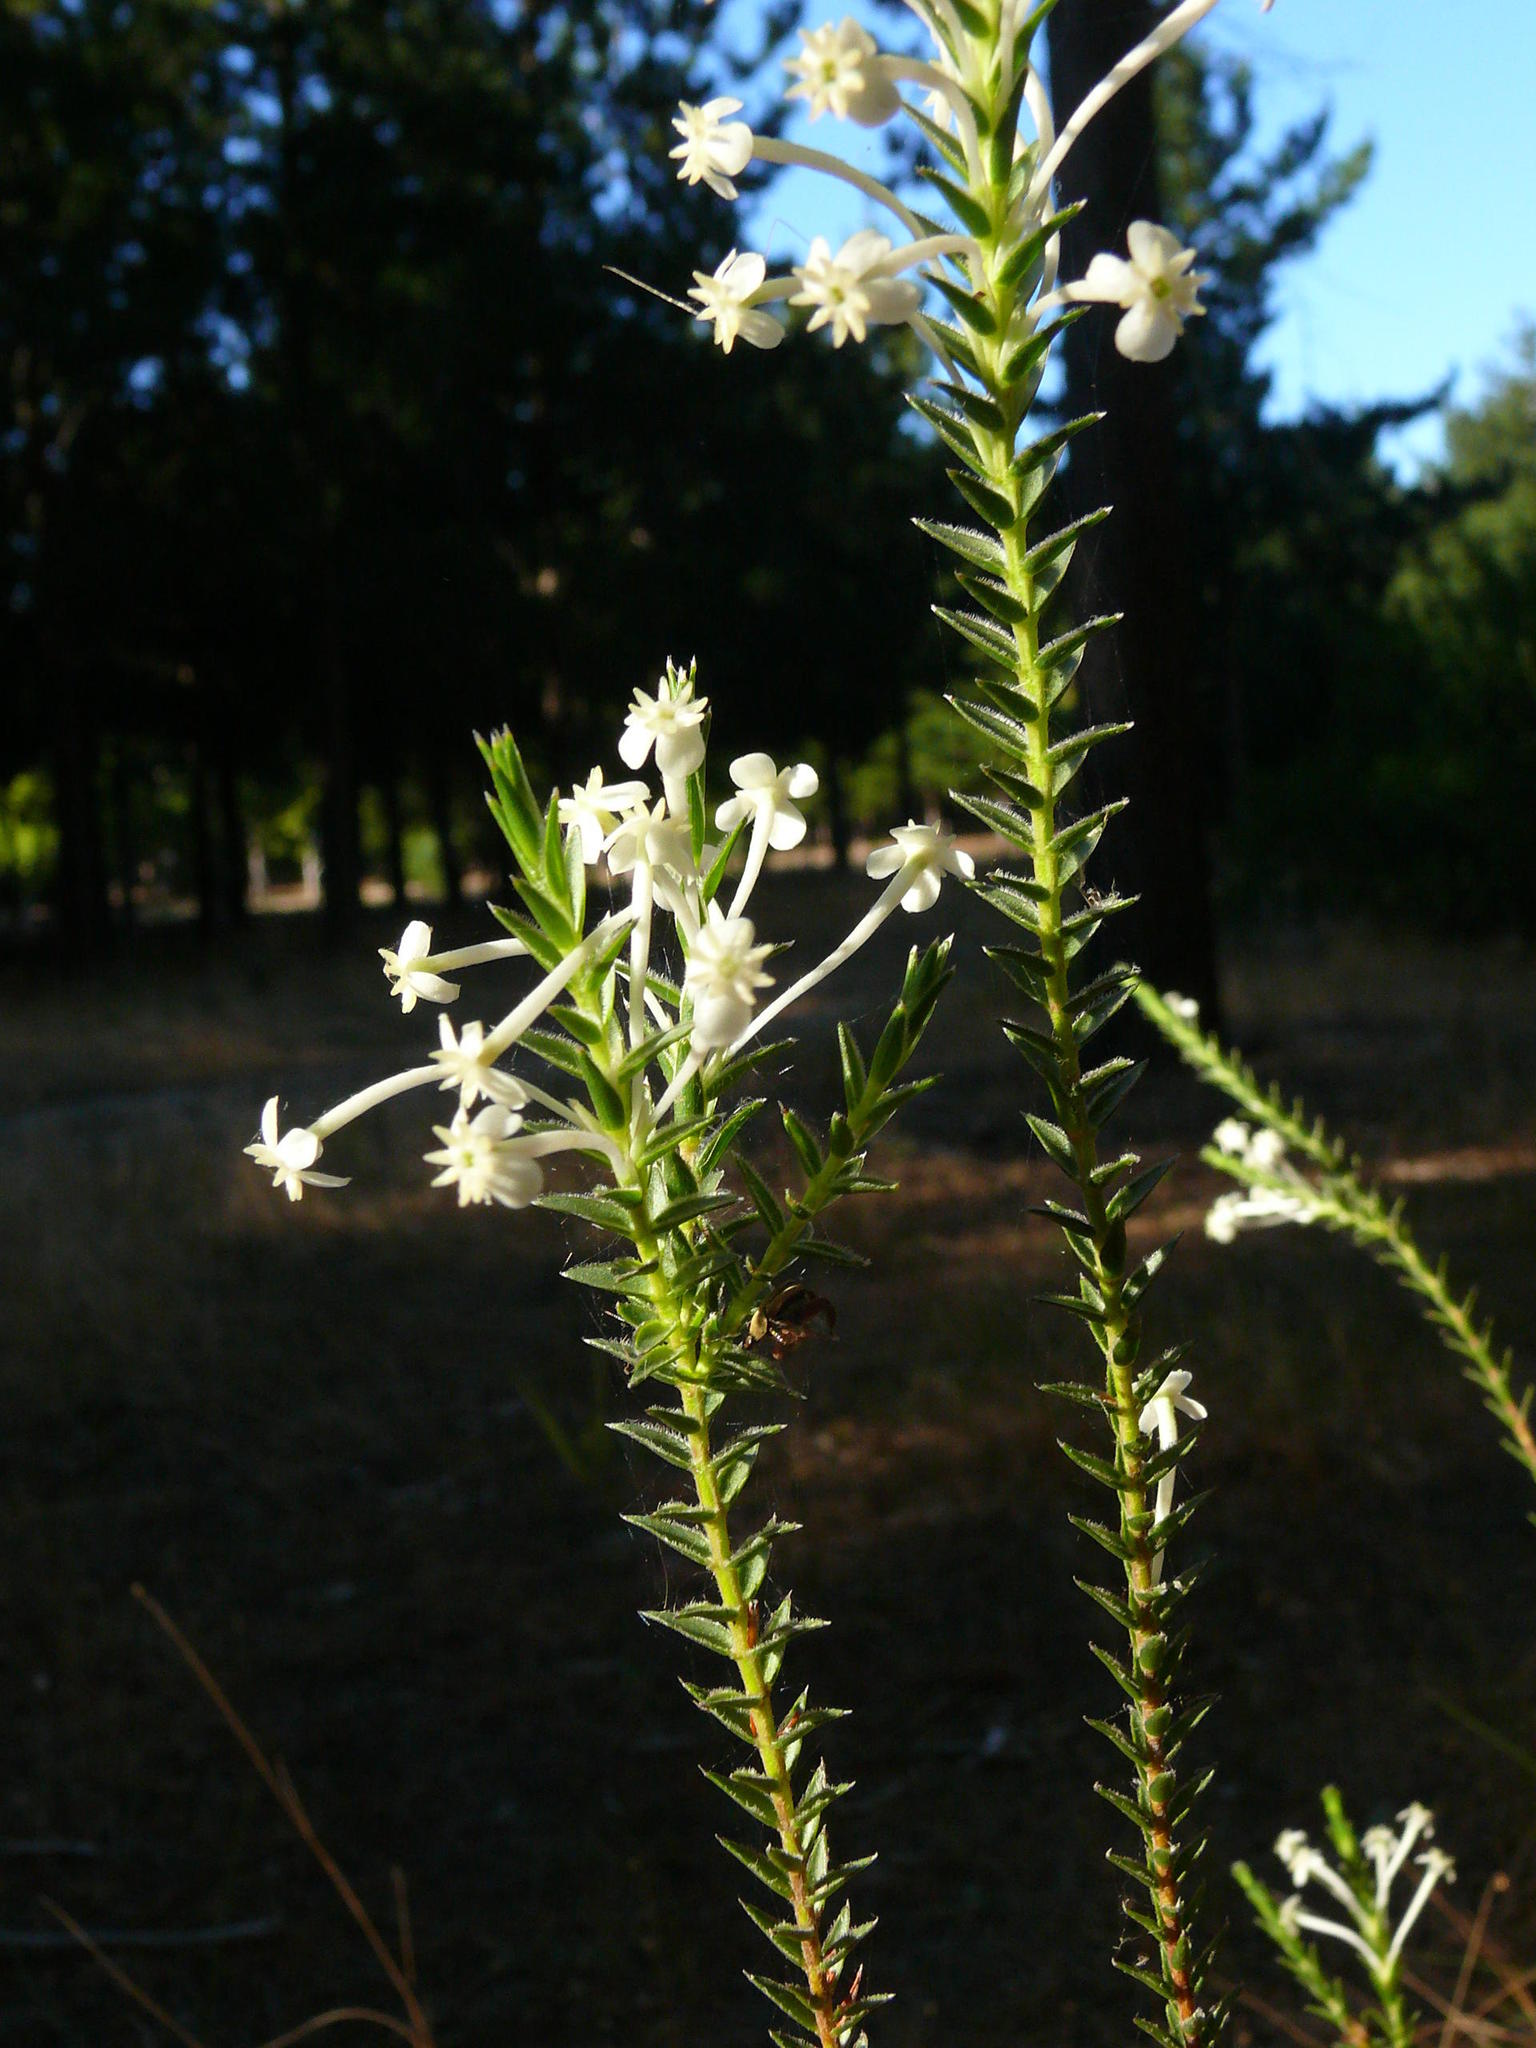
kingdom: Plantae
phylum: Tracheophyta
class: Magnoliopsida
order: Malvales
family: Thymelaeaceae
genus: Struthiola
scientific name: Struthiola ciliata
